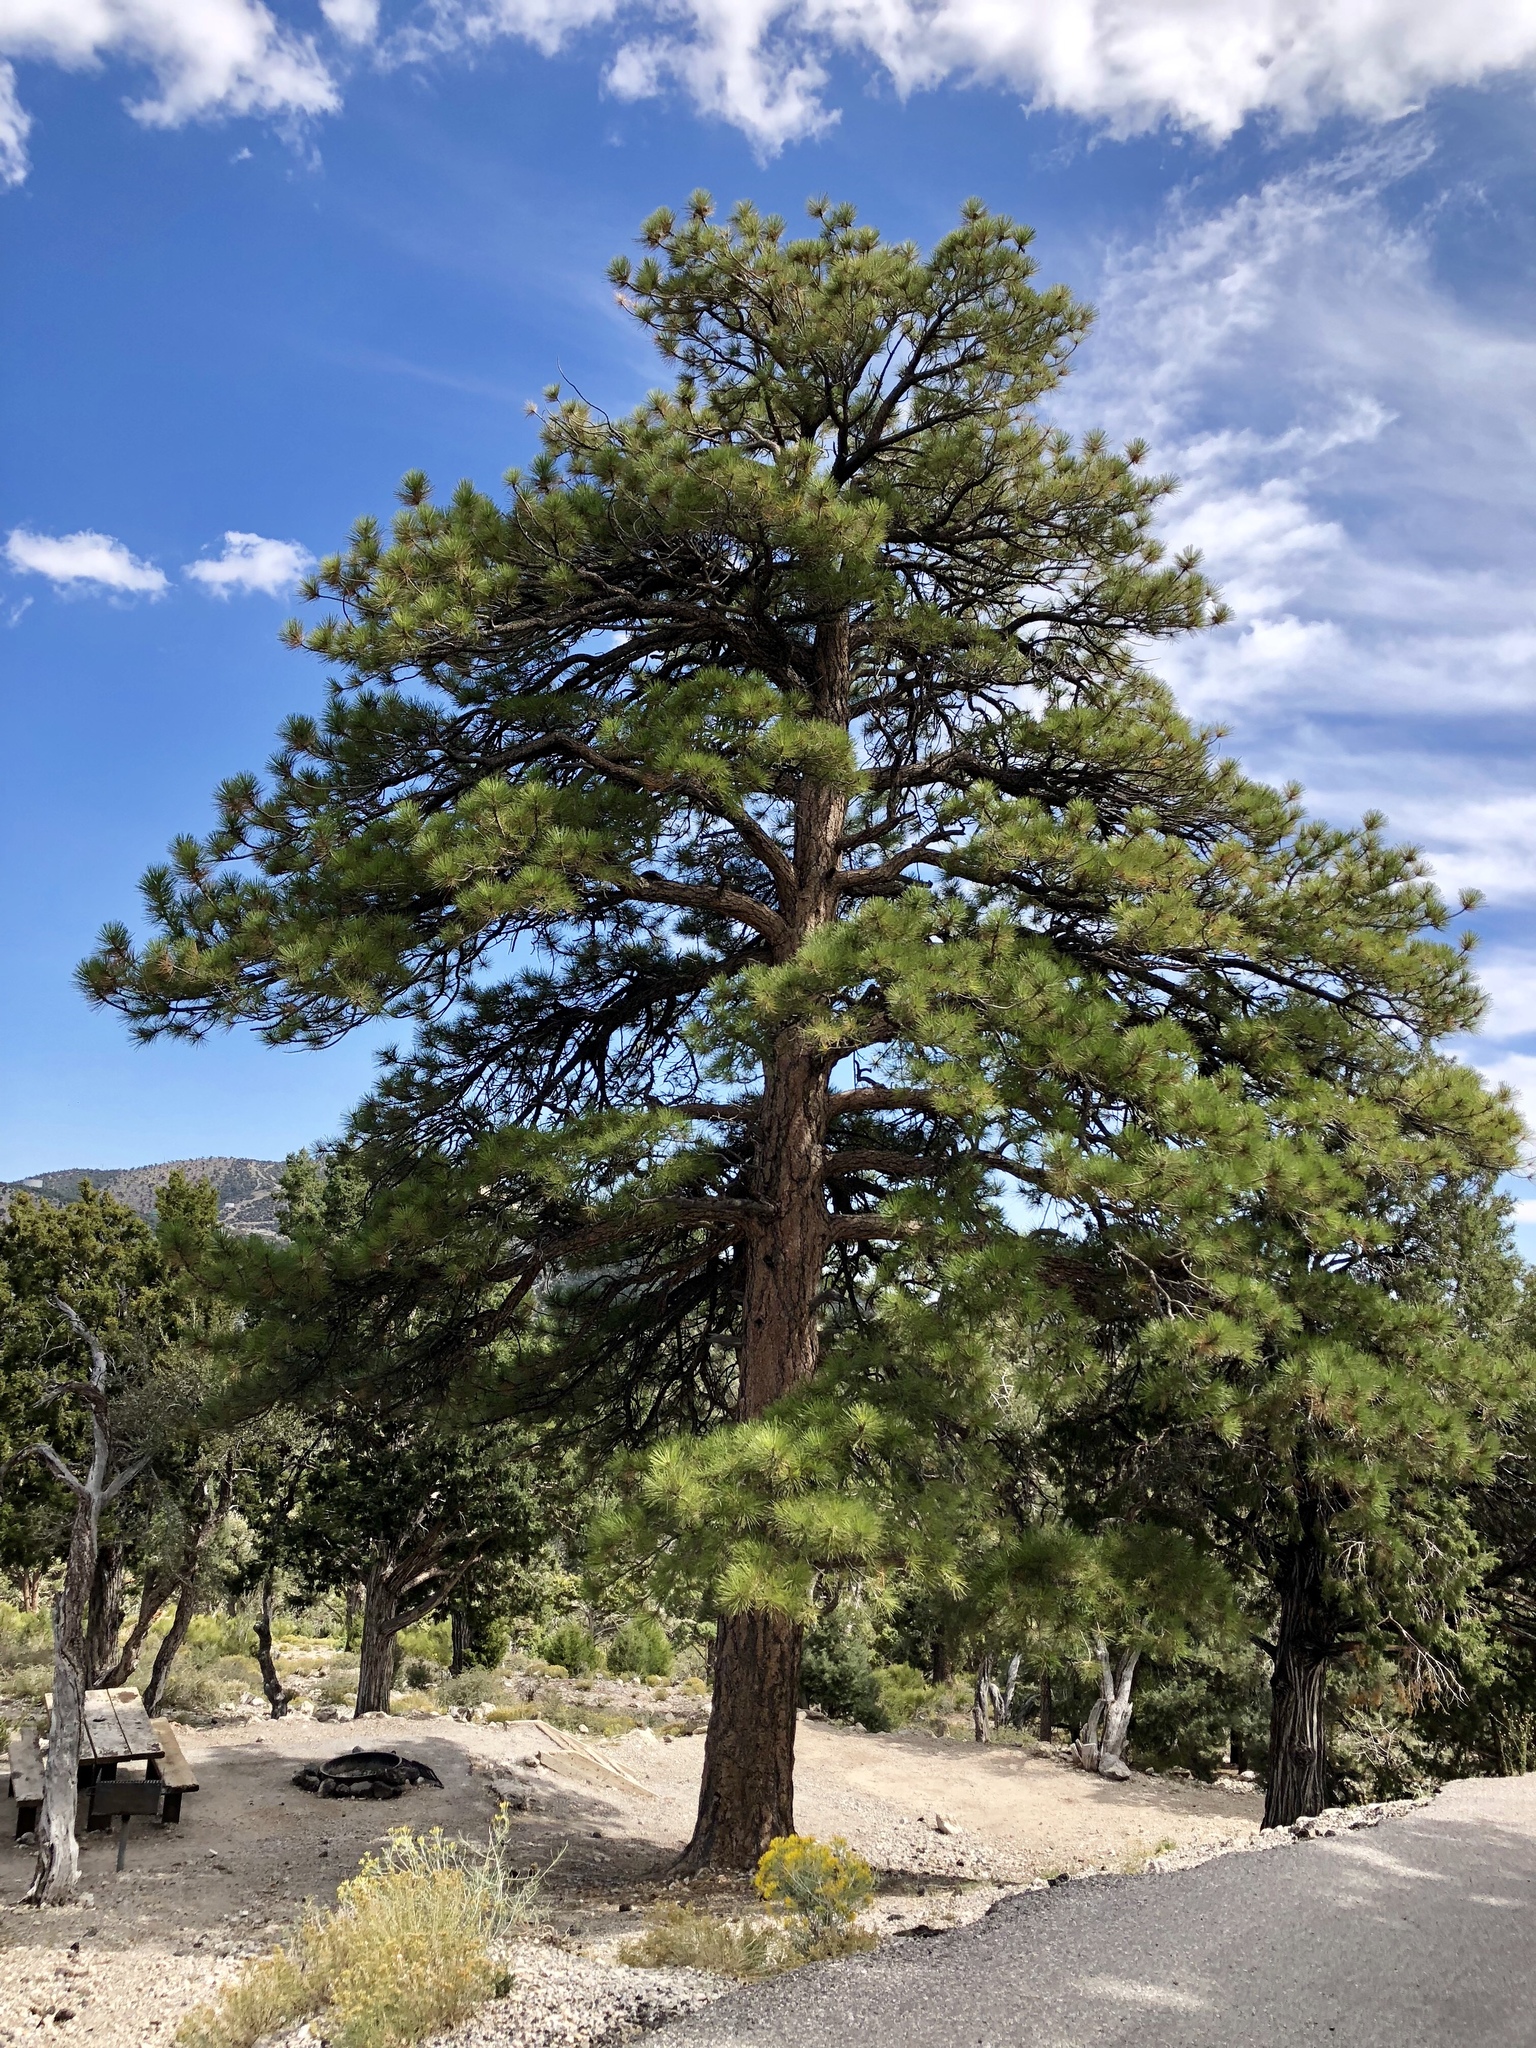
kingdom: Plantae
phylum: Tracheophyta
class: Pinopsida
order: Pinales
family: Pinaceae
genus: Pinus
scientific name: Pinus ponderosa
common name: Western yellow-pine
